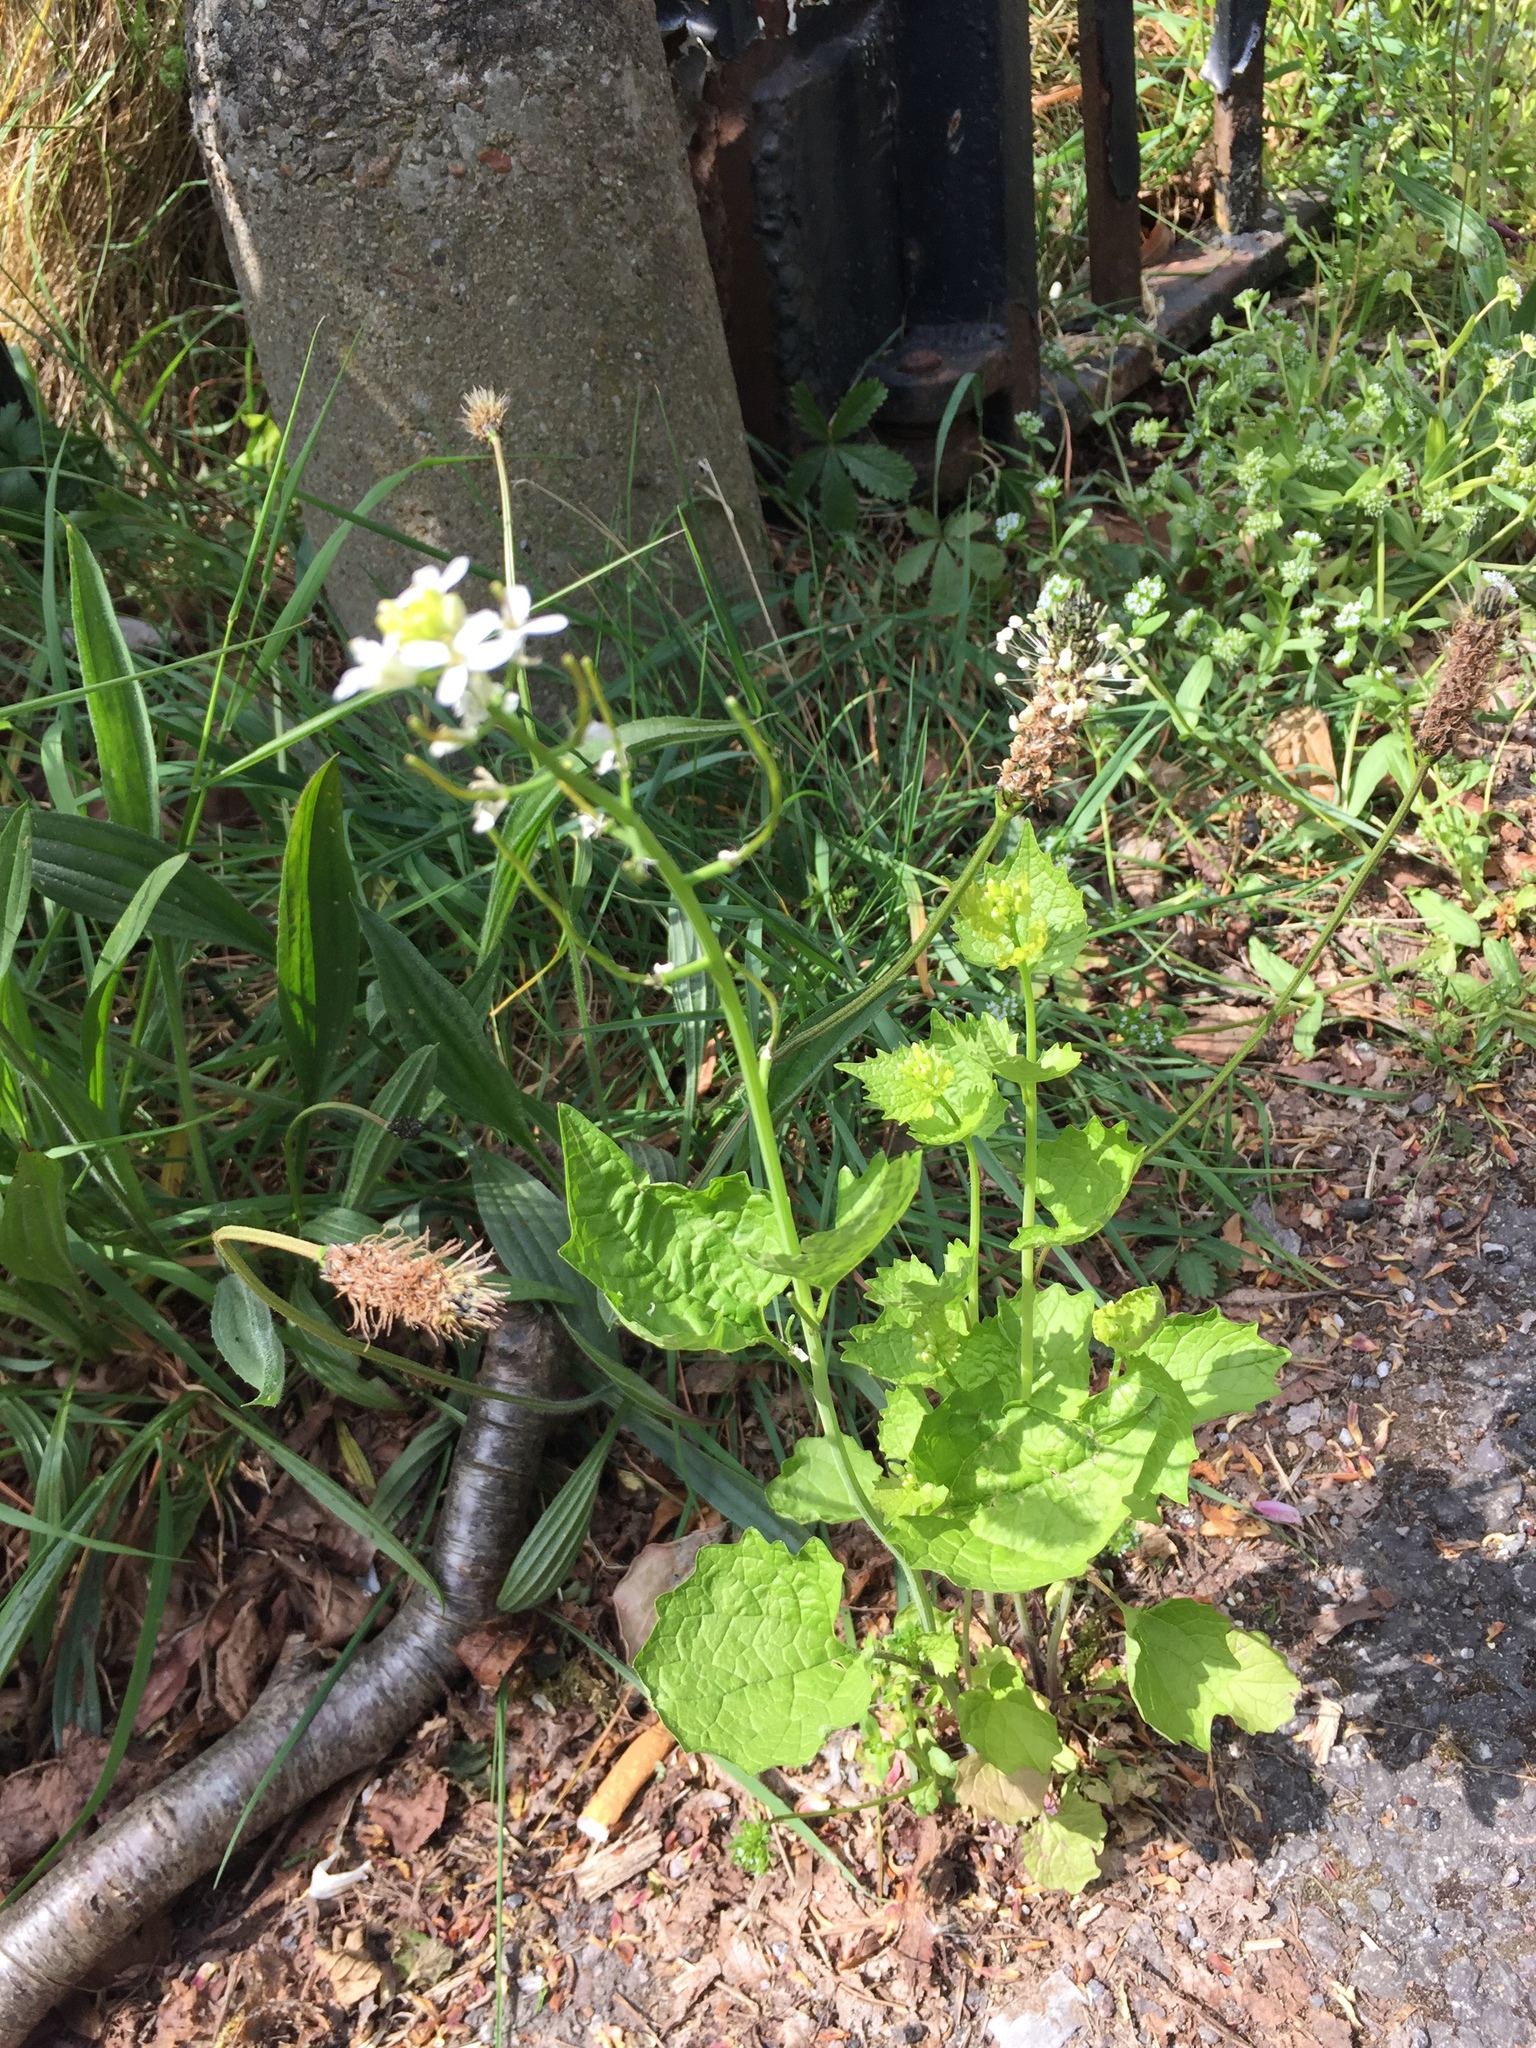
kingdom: Plantae
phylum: Tracheophyta
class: Magnoliopsida
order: Brassicales
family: Brassicaceae
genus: Alliaria
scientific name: Alliaria petiolata
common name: Garlic mustard
